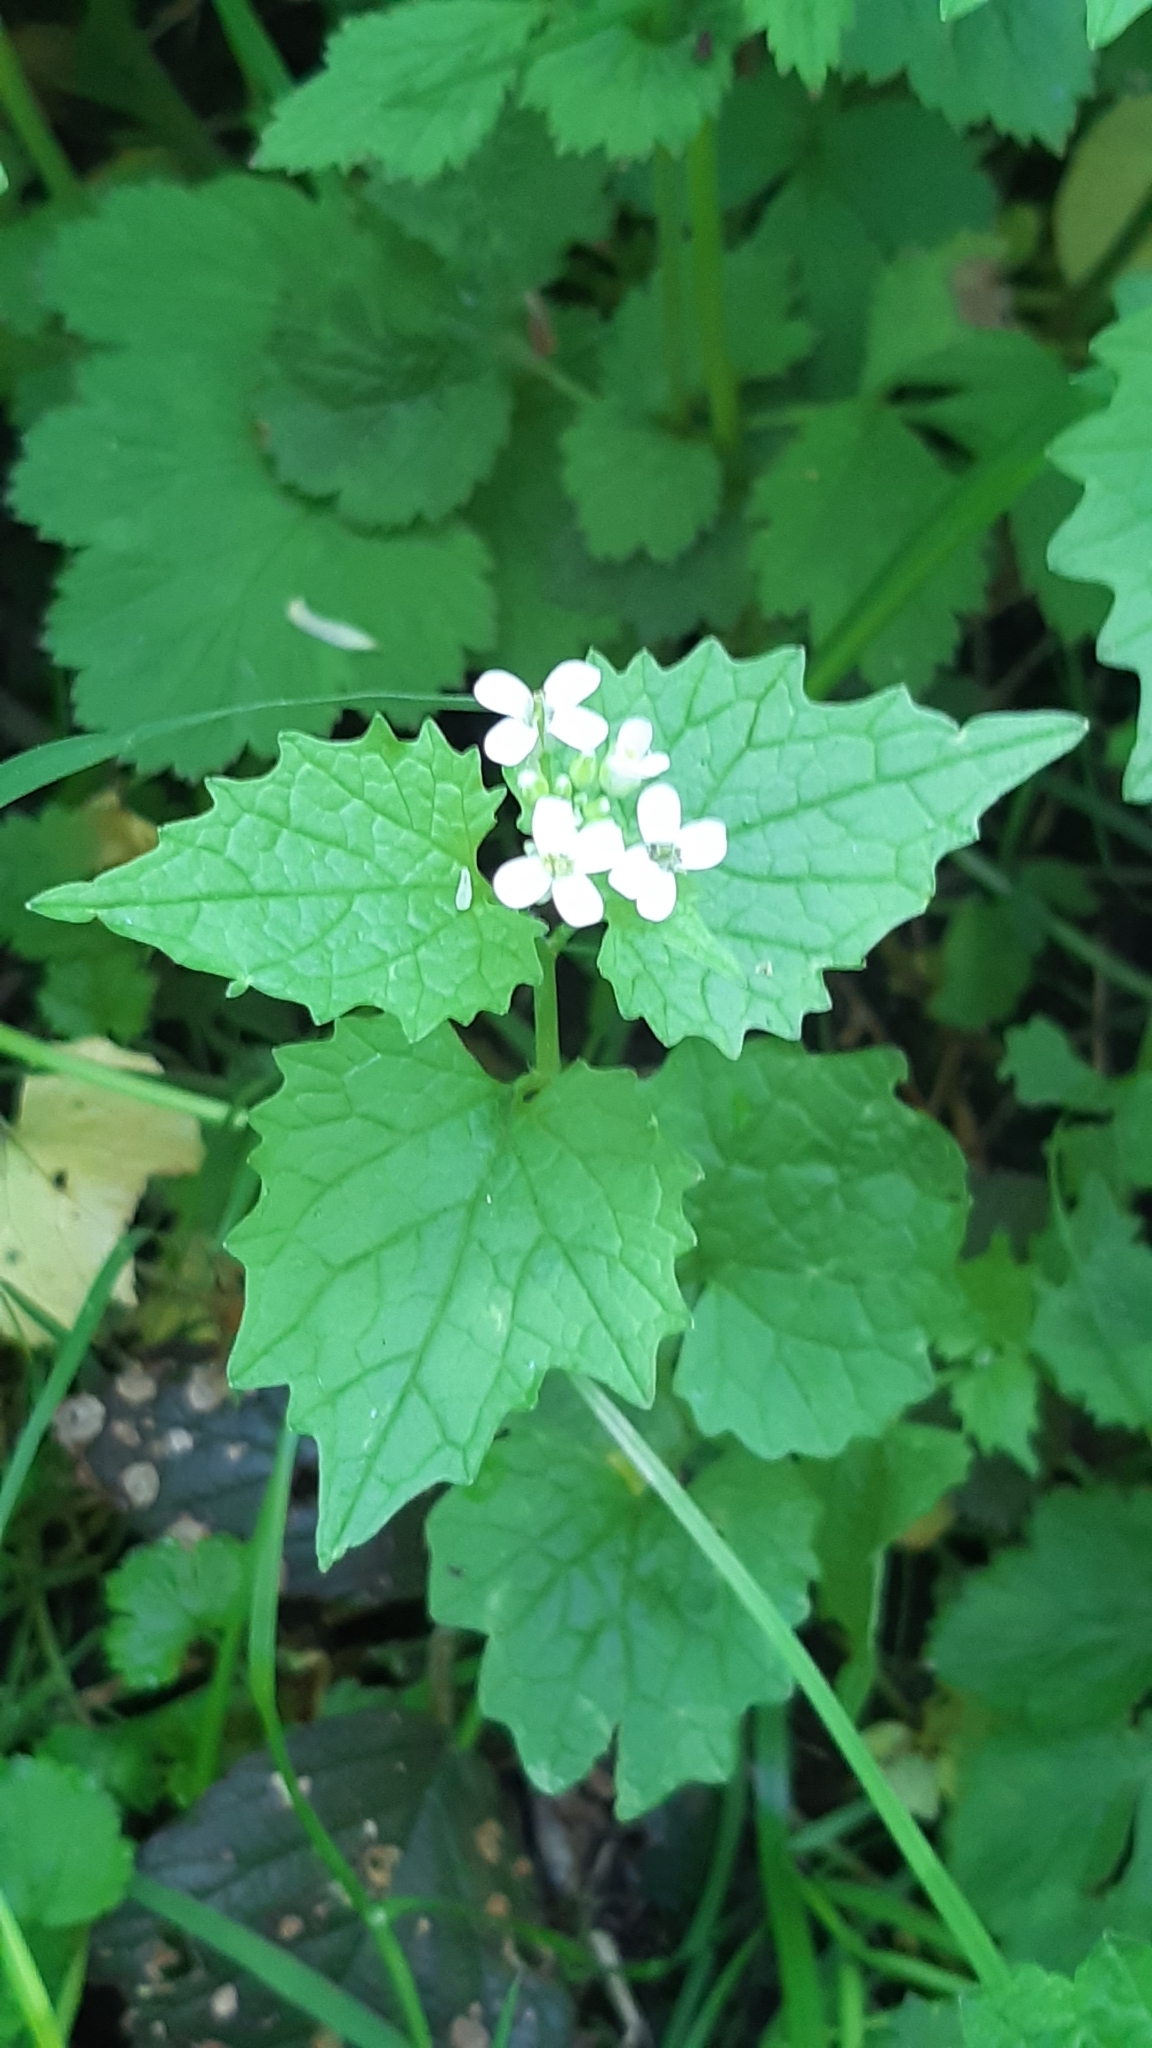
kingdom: Plantae
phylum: Tracheophyta
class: Magnoliopsida
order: Brassicales
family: Brassicaceae
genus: Alliaria
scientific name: Alliaria petiolata
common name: Garlic mustard
